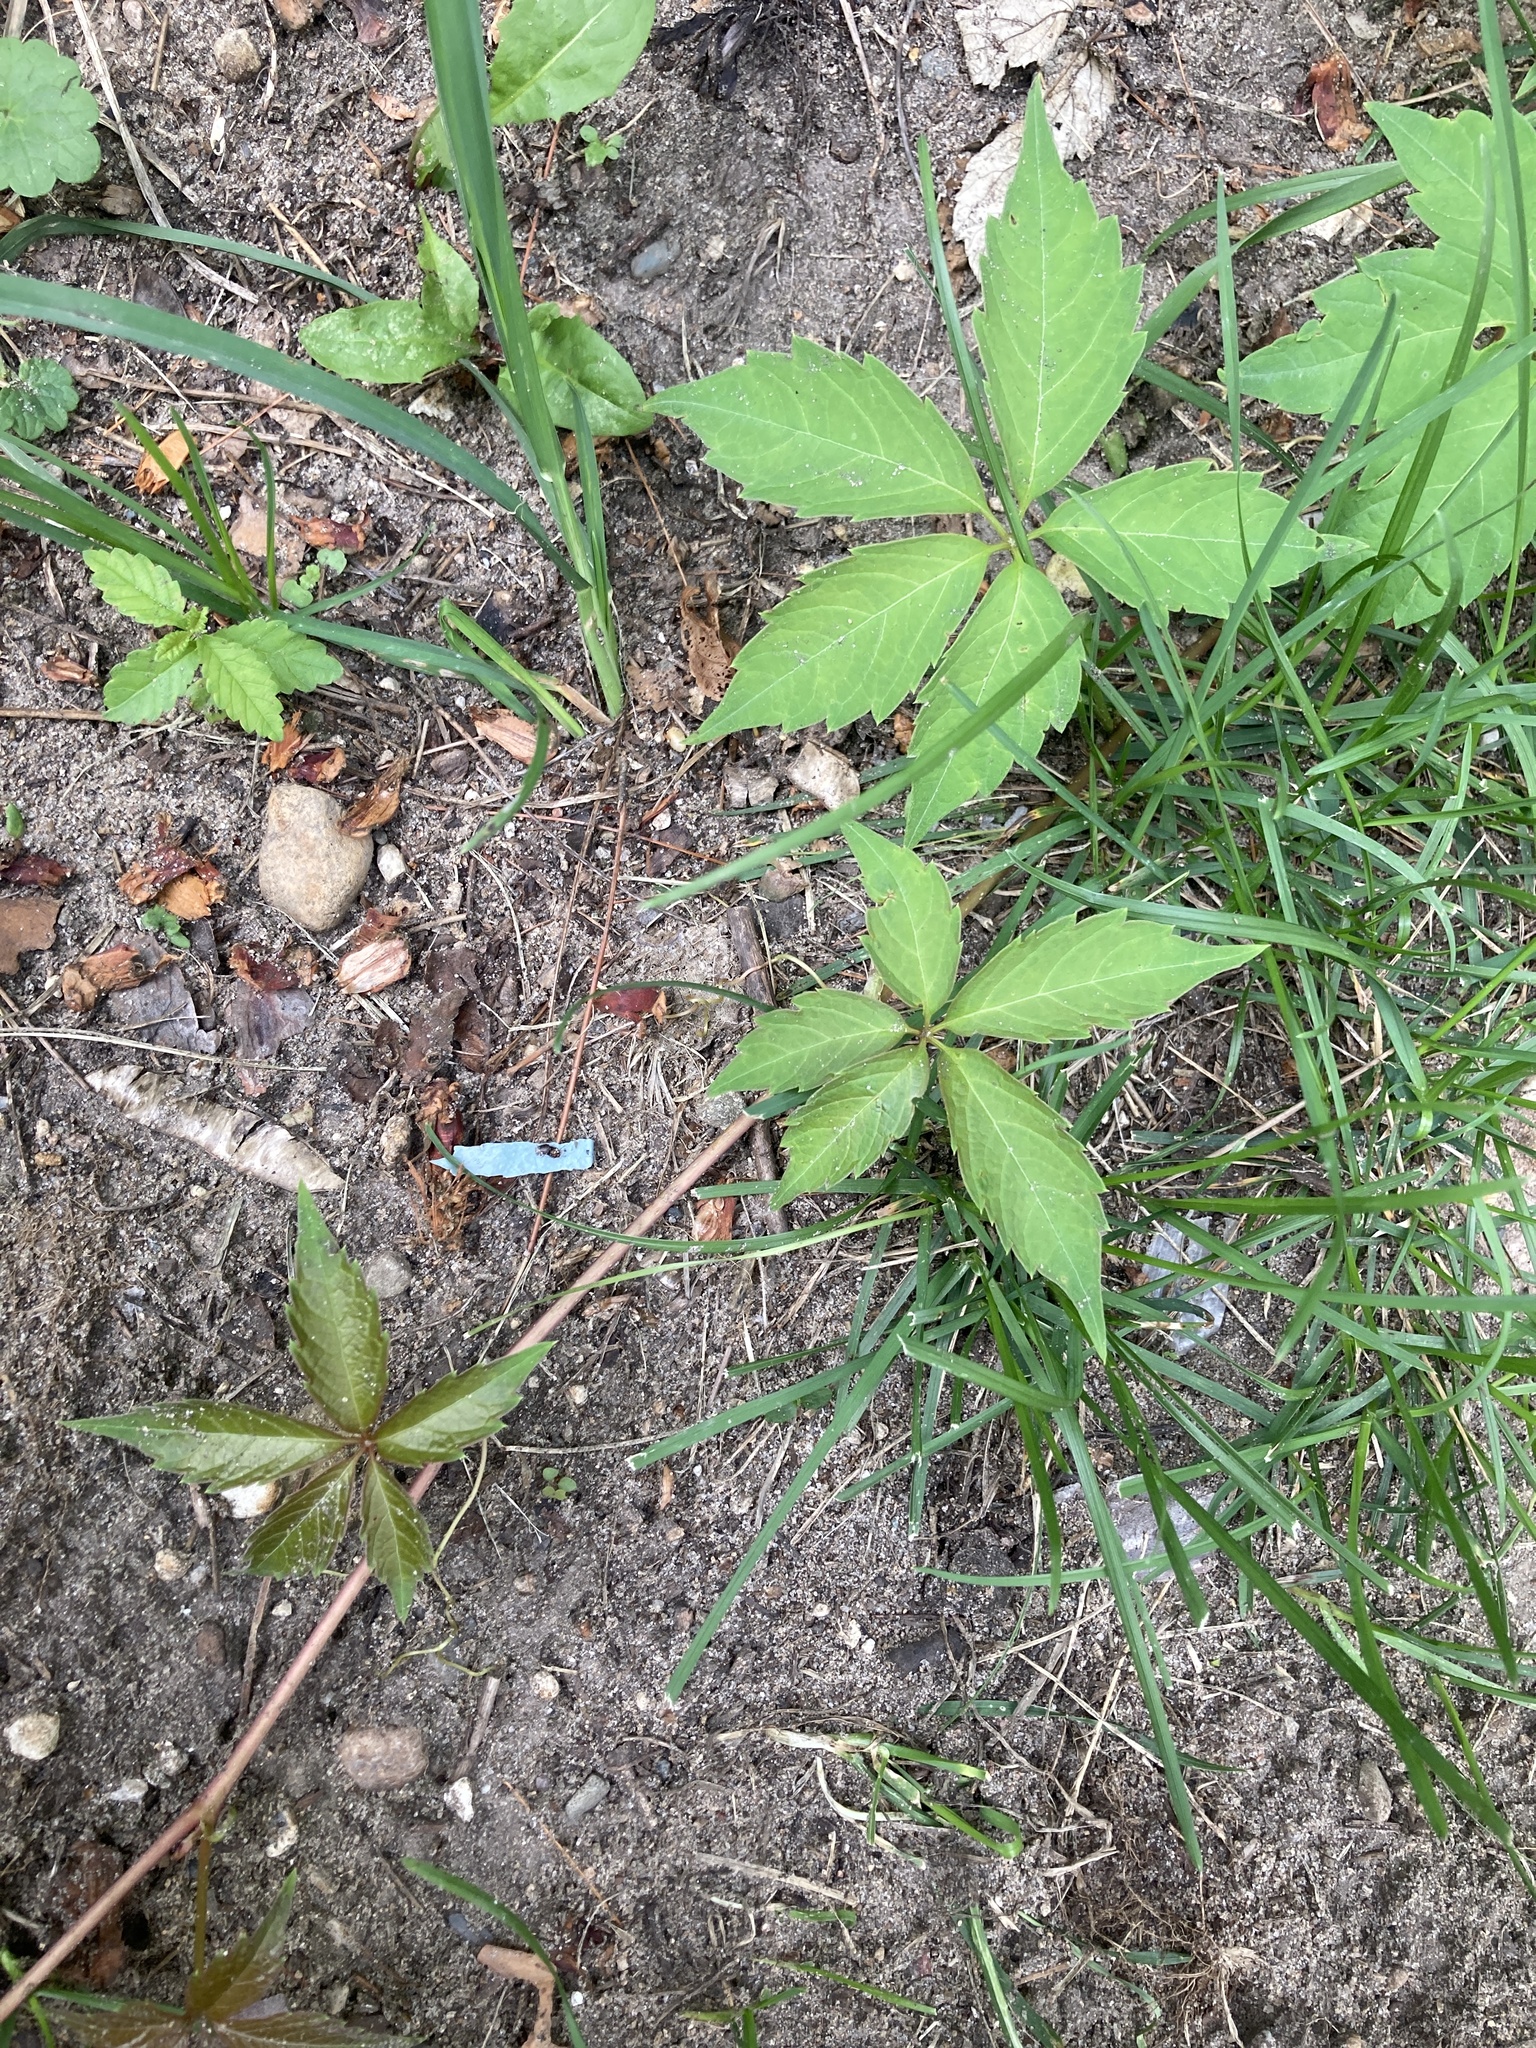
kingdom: Plantae
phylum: Tracheophyta
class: Magnoliopsida
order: Vitales
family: Vitaceae
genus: Parthenocissus
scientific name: Parthenocissus quinquefolia
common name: Virginia-creeper
